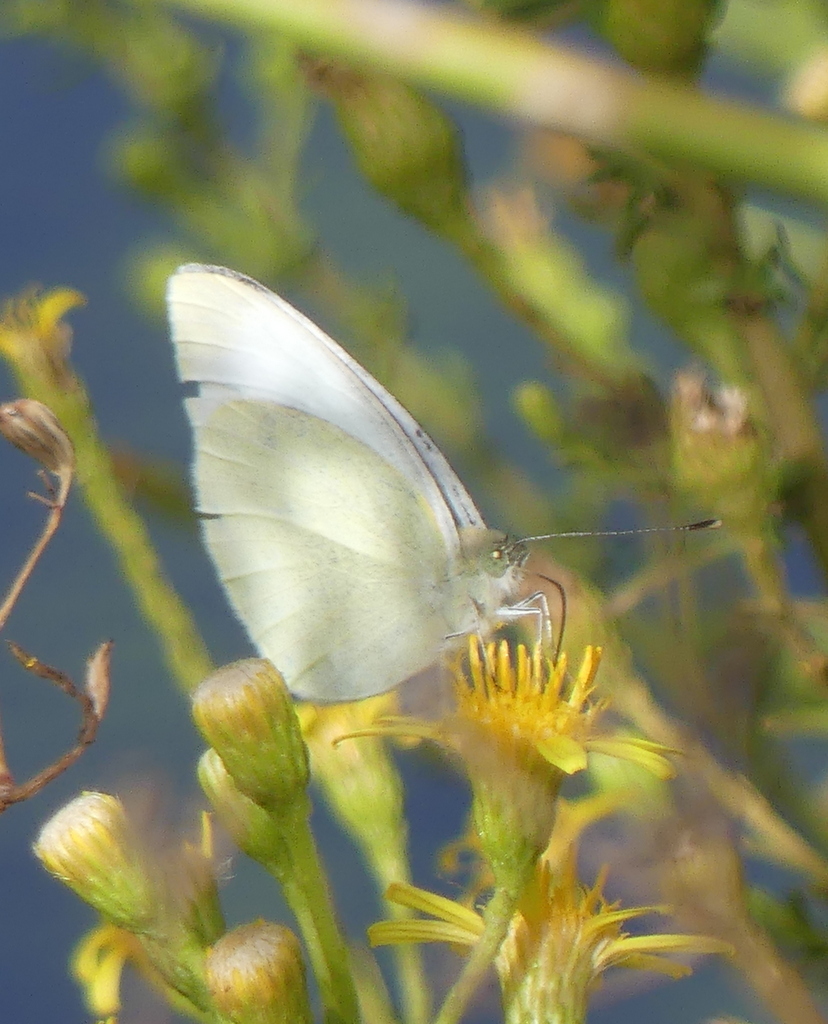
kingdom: Animalia
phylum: Arthropoda
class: Insecta
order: Lepidoptera
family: Pieridae
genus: Pieris
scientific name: Pieris rapae
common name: Small white
